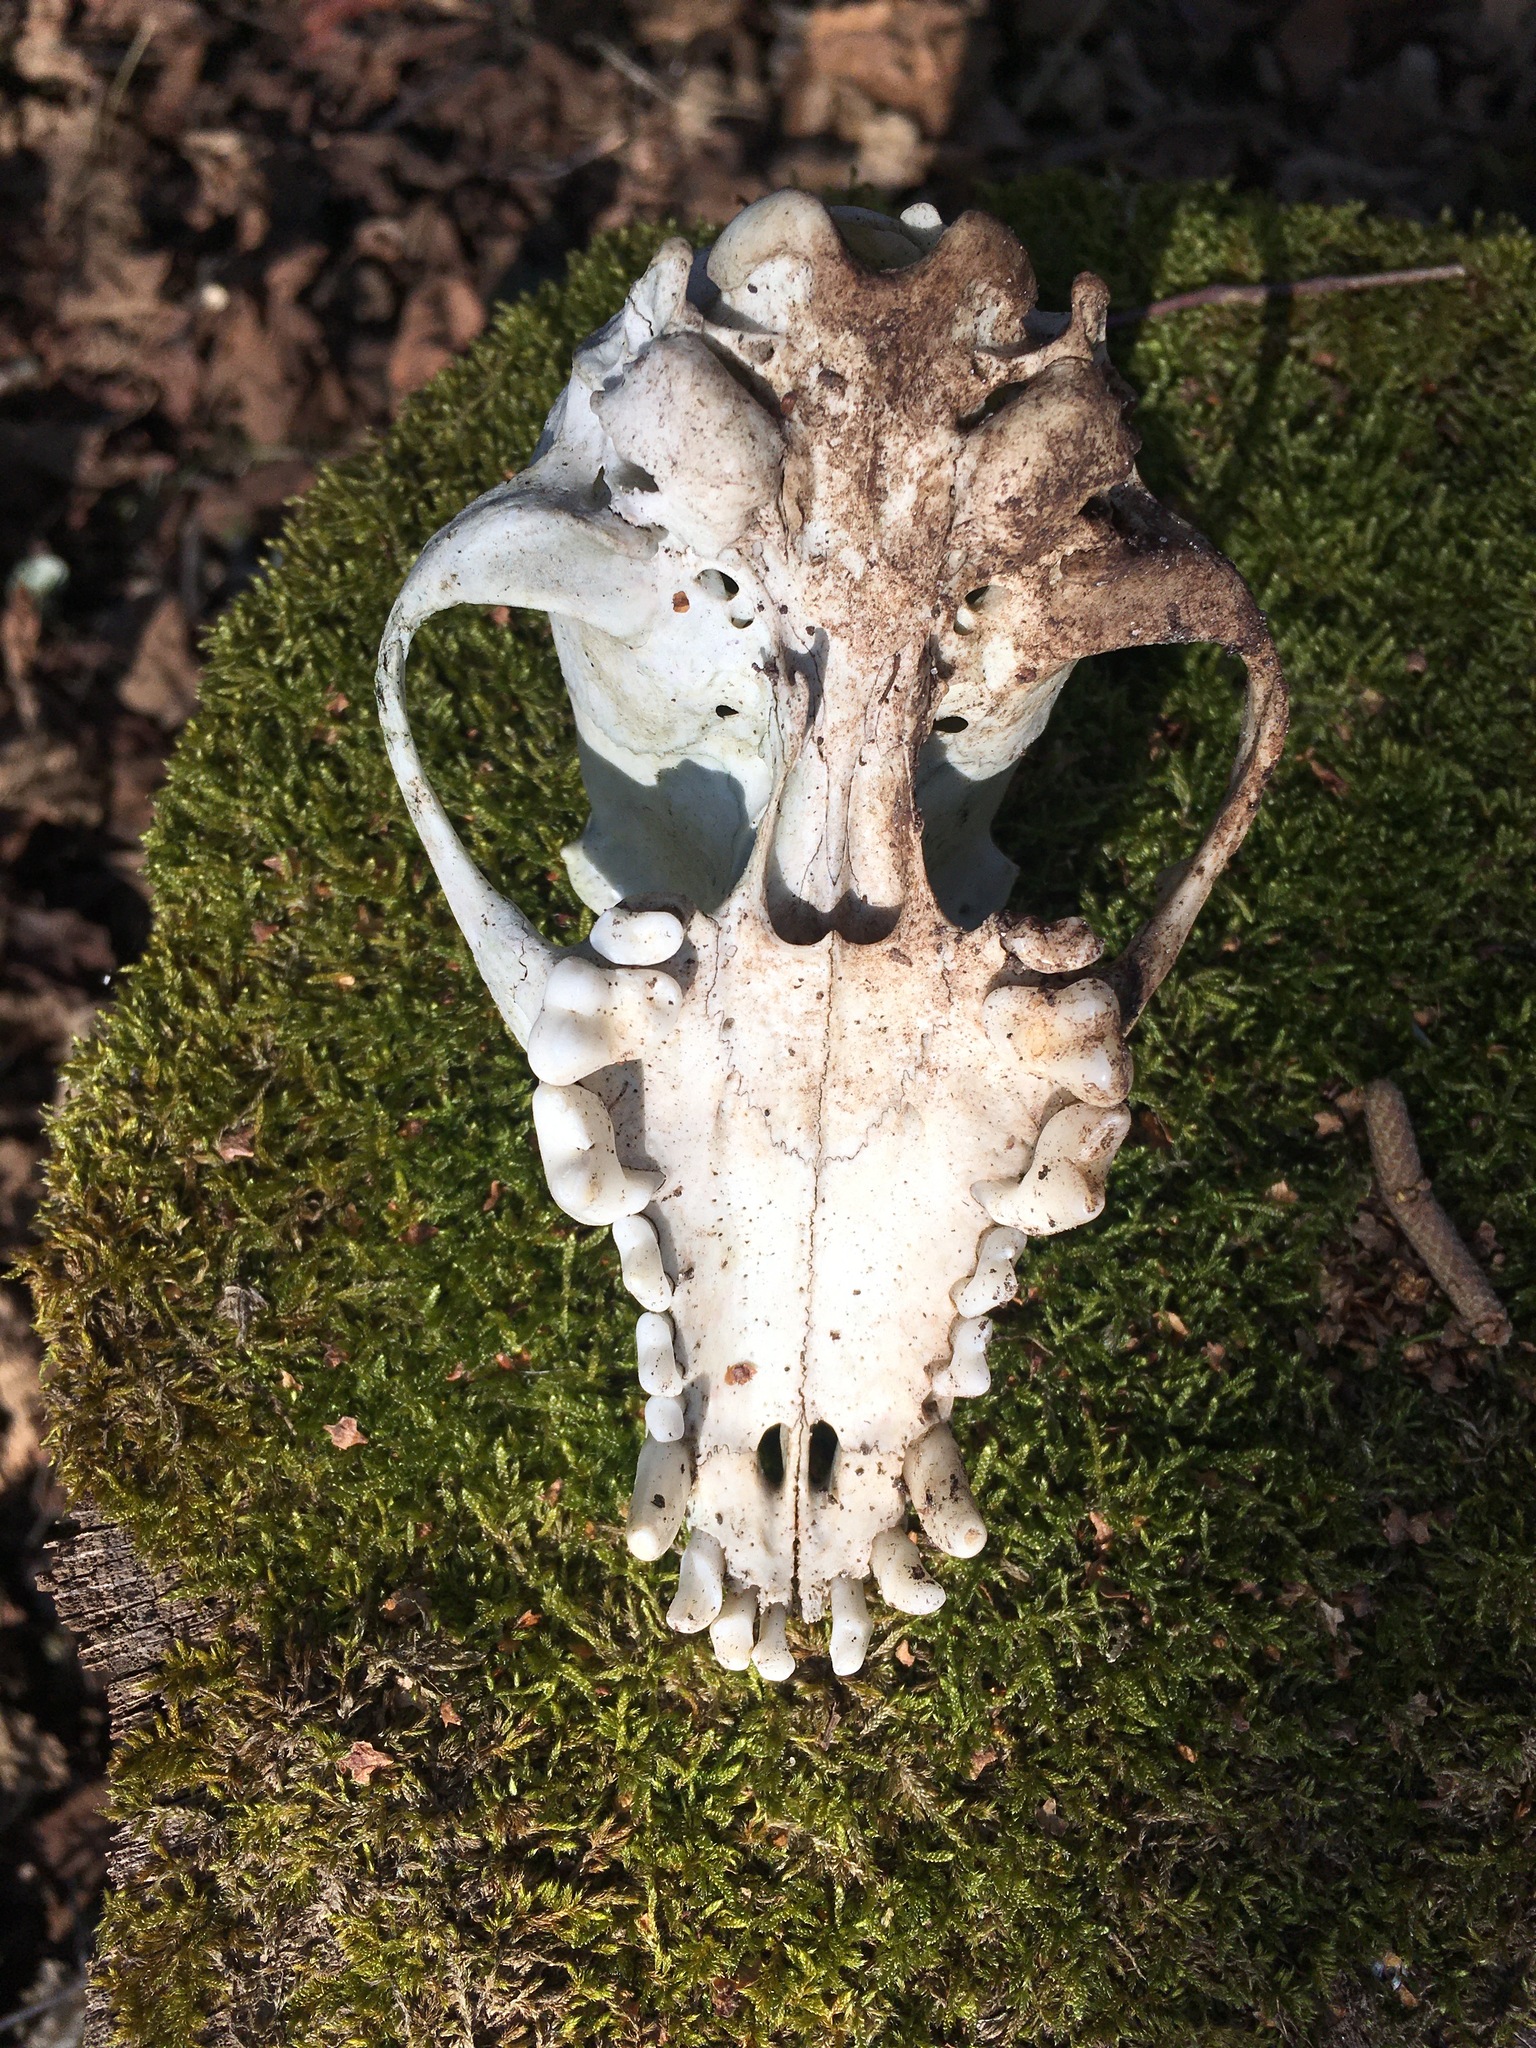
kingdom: Animalia
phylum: Chordata
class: Mammalia
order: Carnivora
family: Canidae
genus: Canis
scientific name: Canis lupus
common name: Gray wolf
